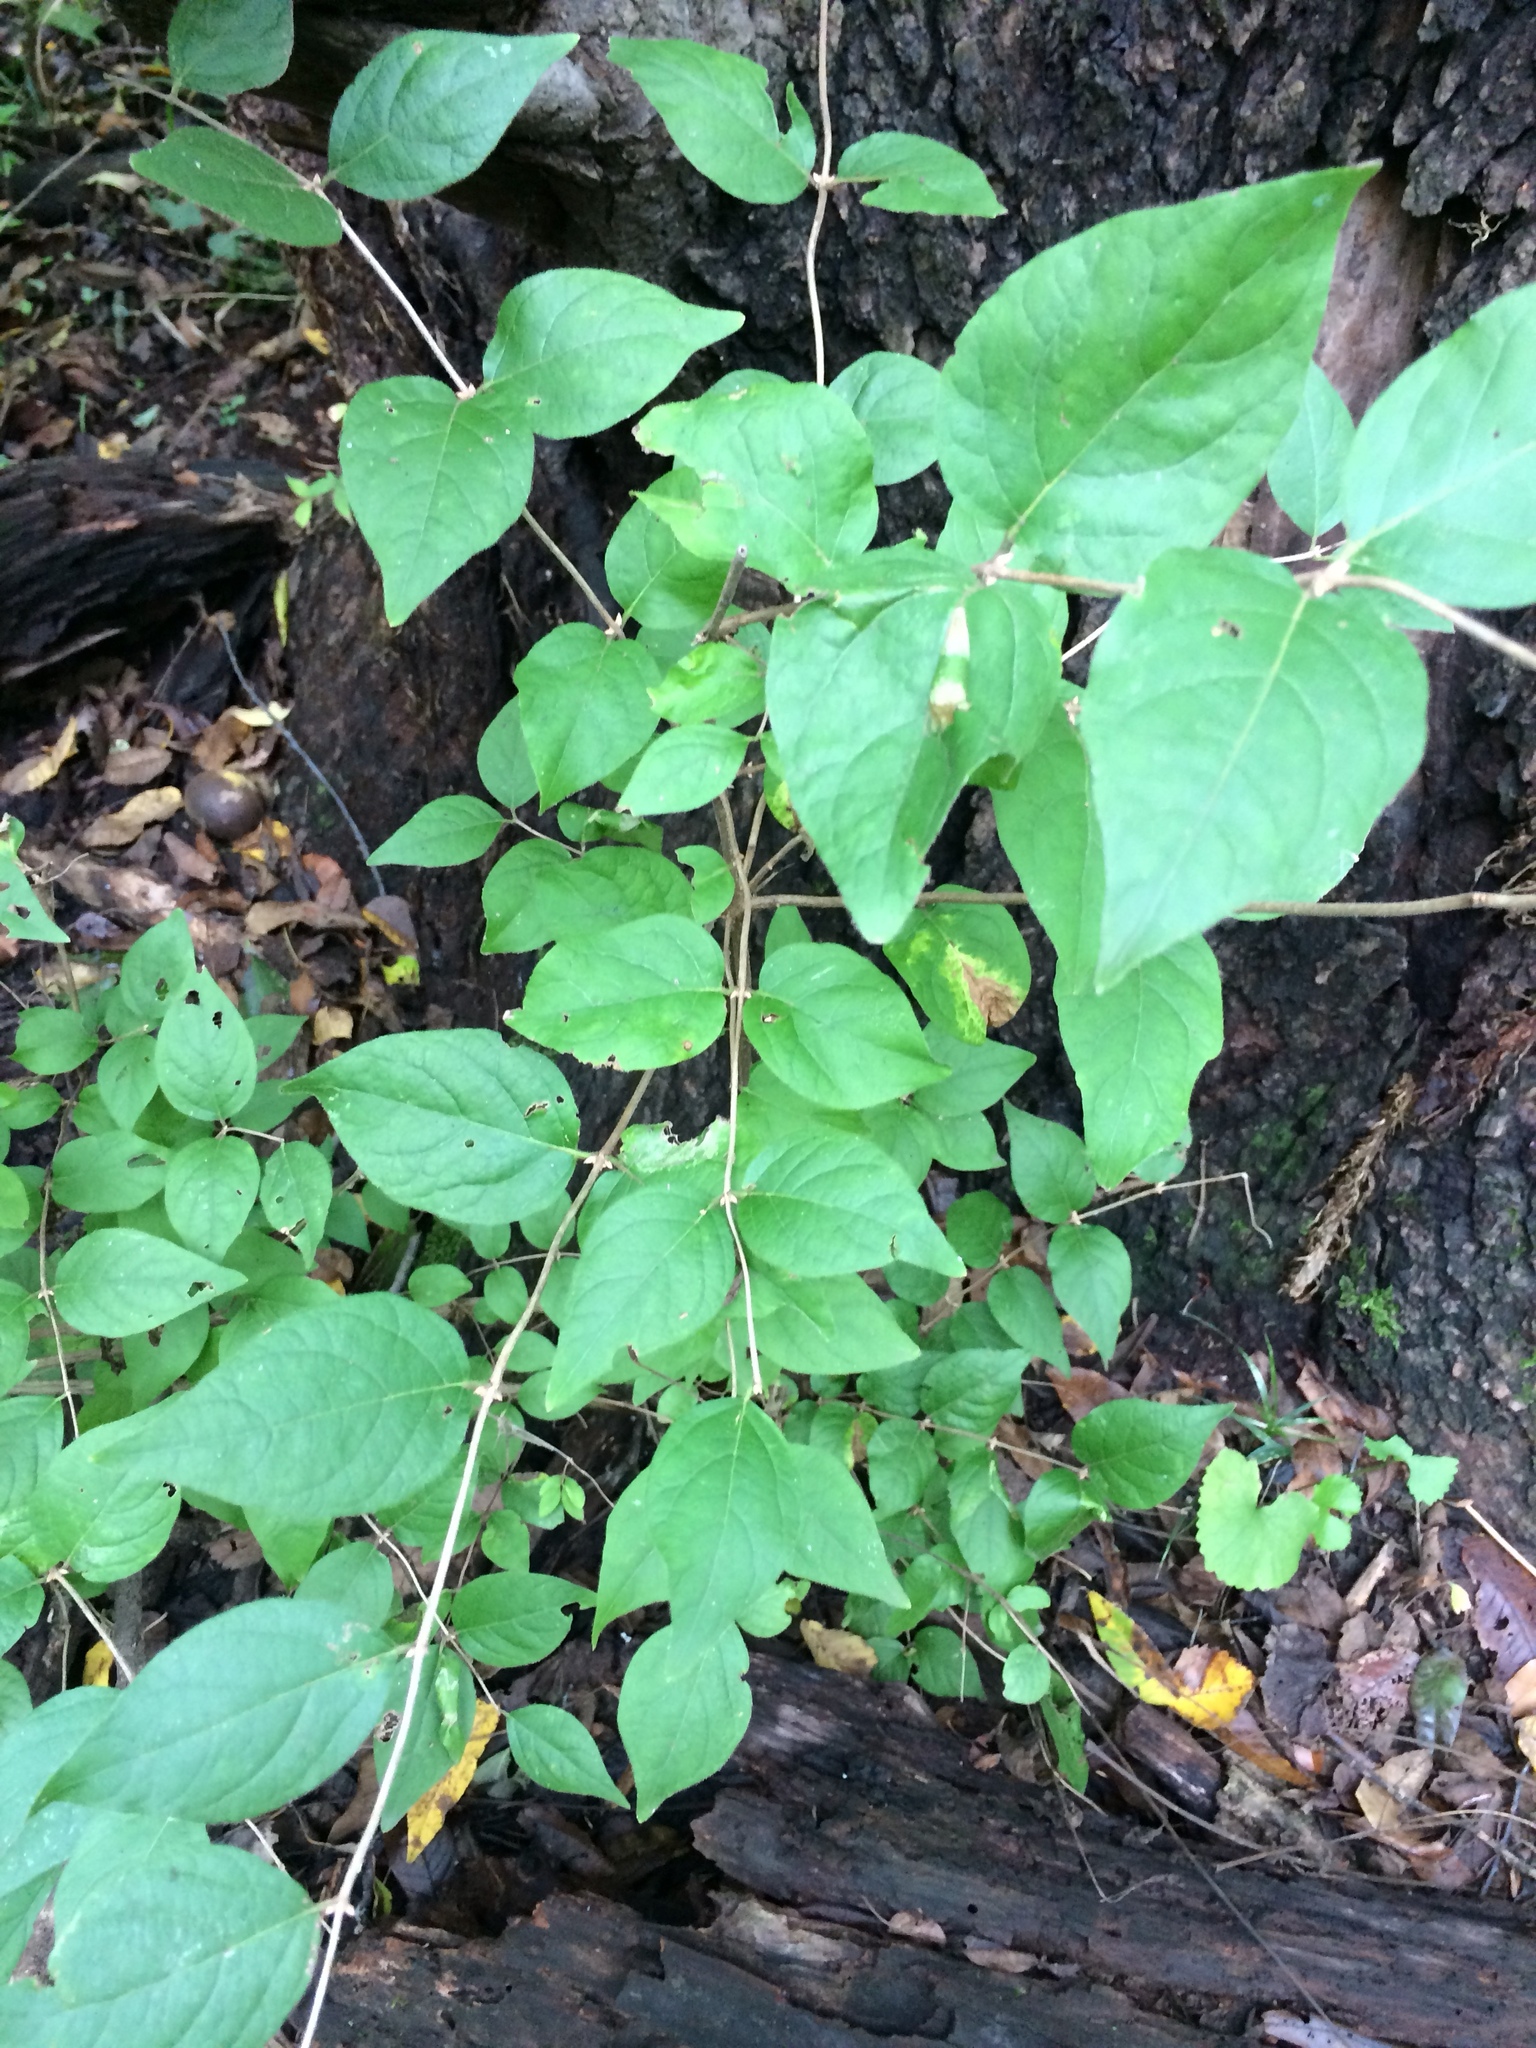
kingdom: Plantae
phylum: Tracheophyta
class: Magnoliopsida
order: Dipsacales
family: Caprifoliaceae
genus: Lonicera
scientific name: Lonicera maackii
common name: Amur honeysuckle
